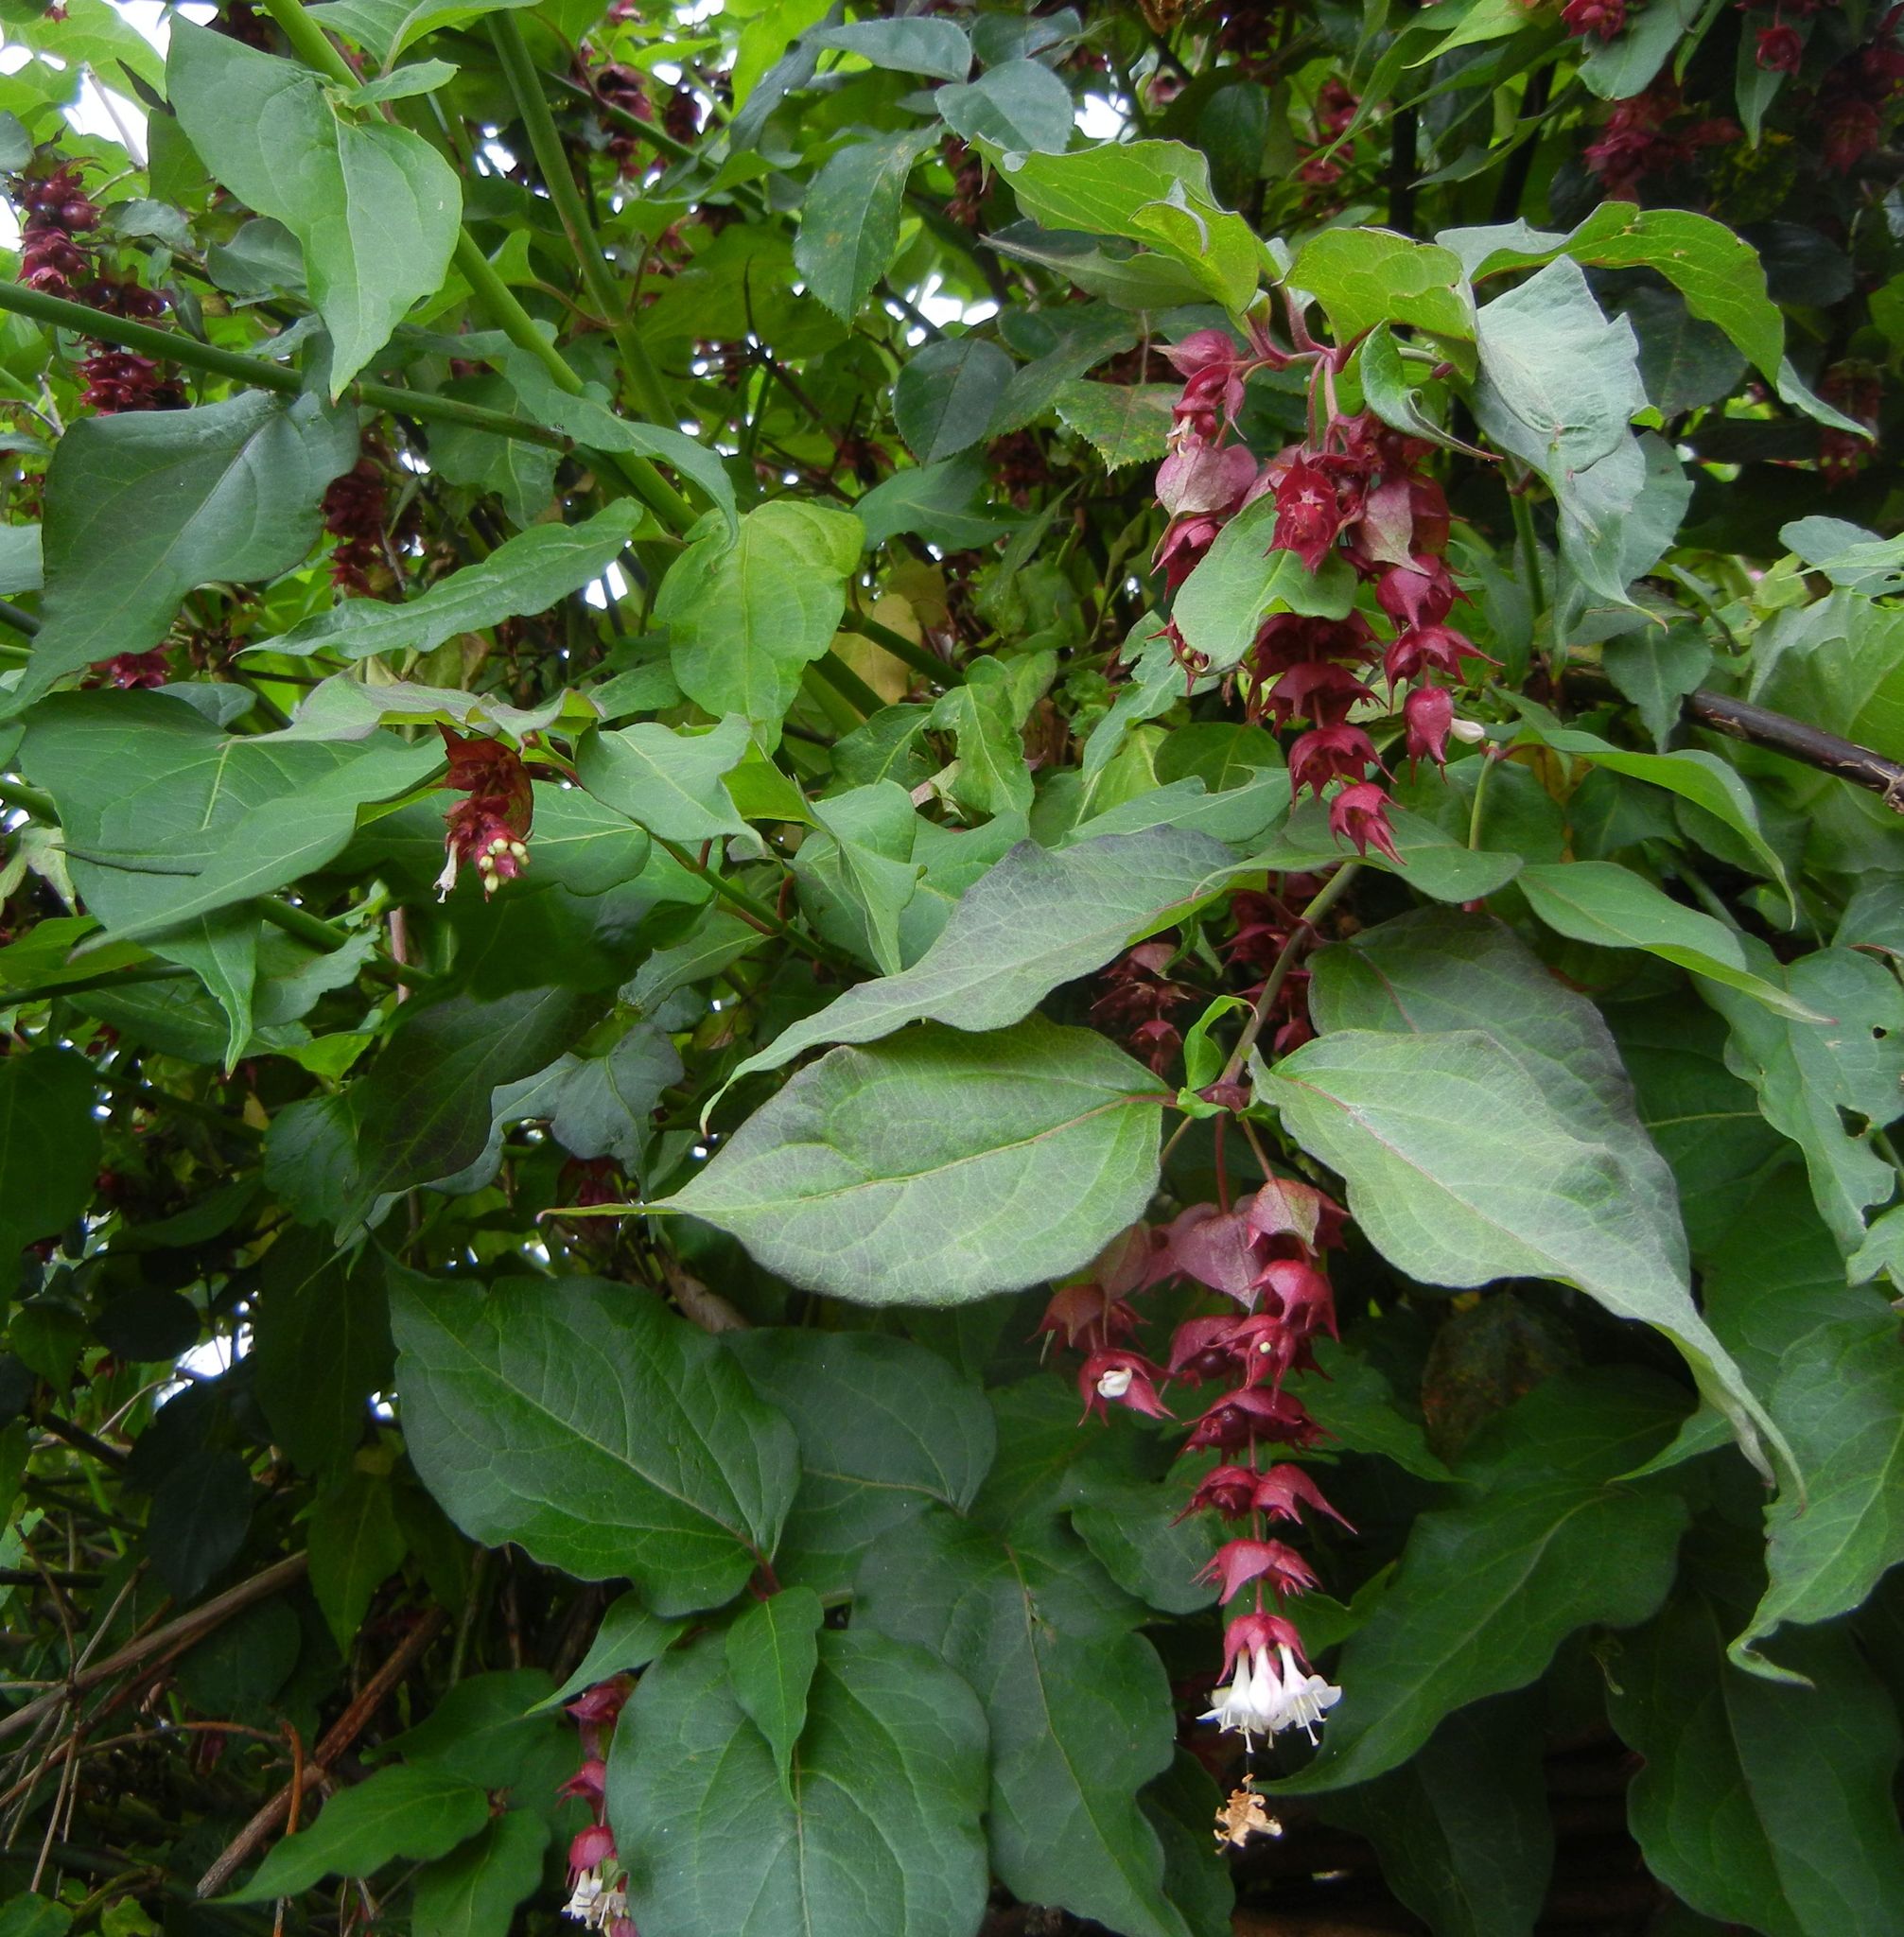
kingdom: Plantae
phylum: Tracheophyta
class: Magnoliopsida
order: Dipsacales
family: Caprifoliaceae
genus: Leycesteria
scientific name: Leycesteria formosa
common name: Himalayan honeysuckle
